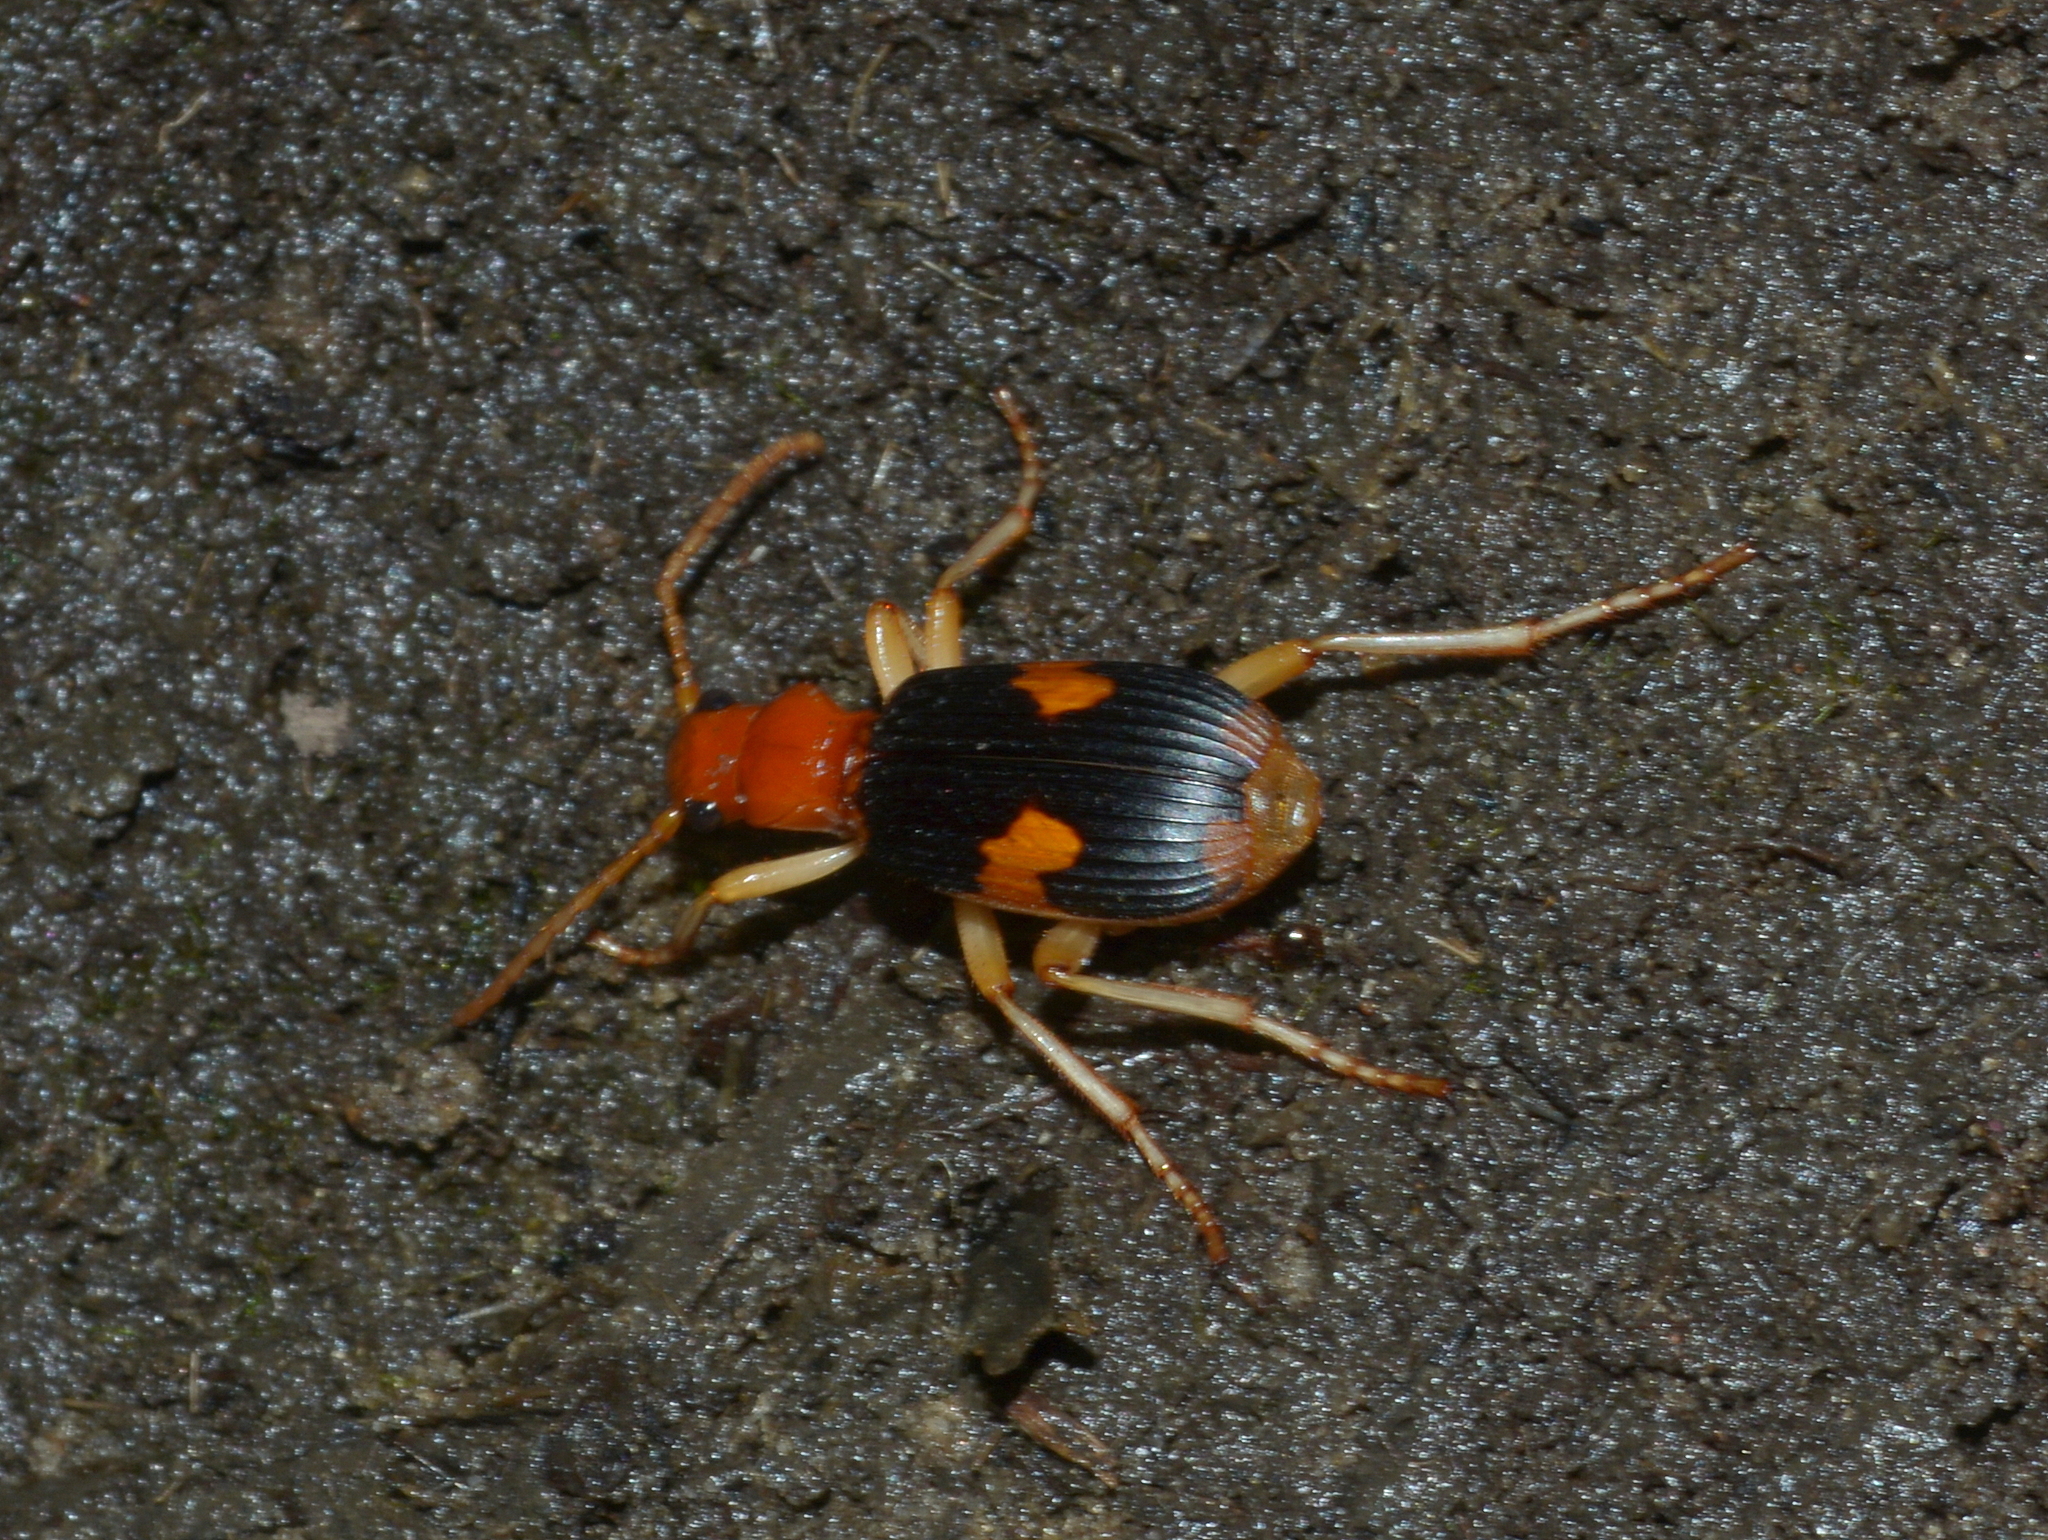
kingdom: Animalia
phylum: Arthropoda
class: Insecta
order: Coleoptera
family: Carabidae
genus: Pheropsophus
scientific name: Pheropsophus aequinoctialis
